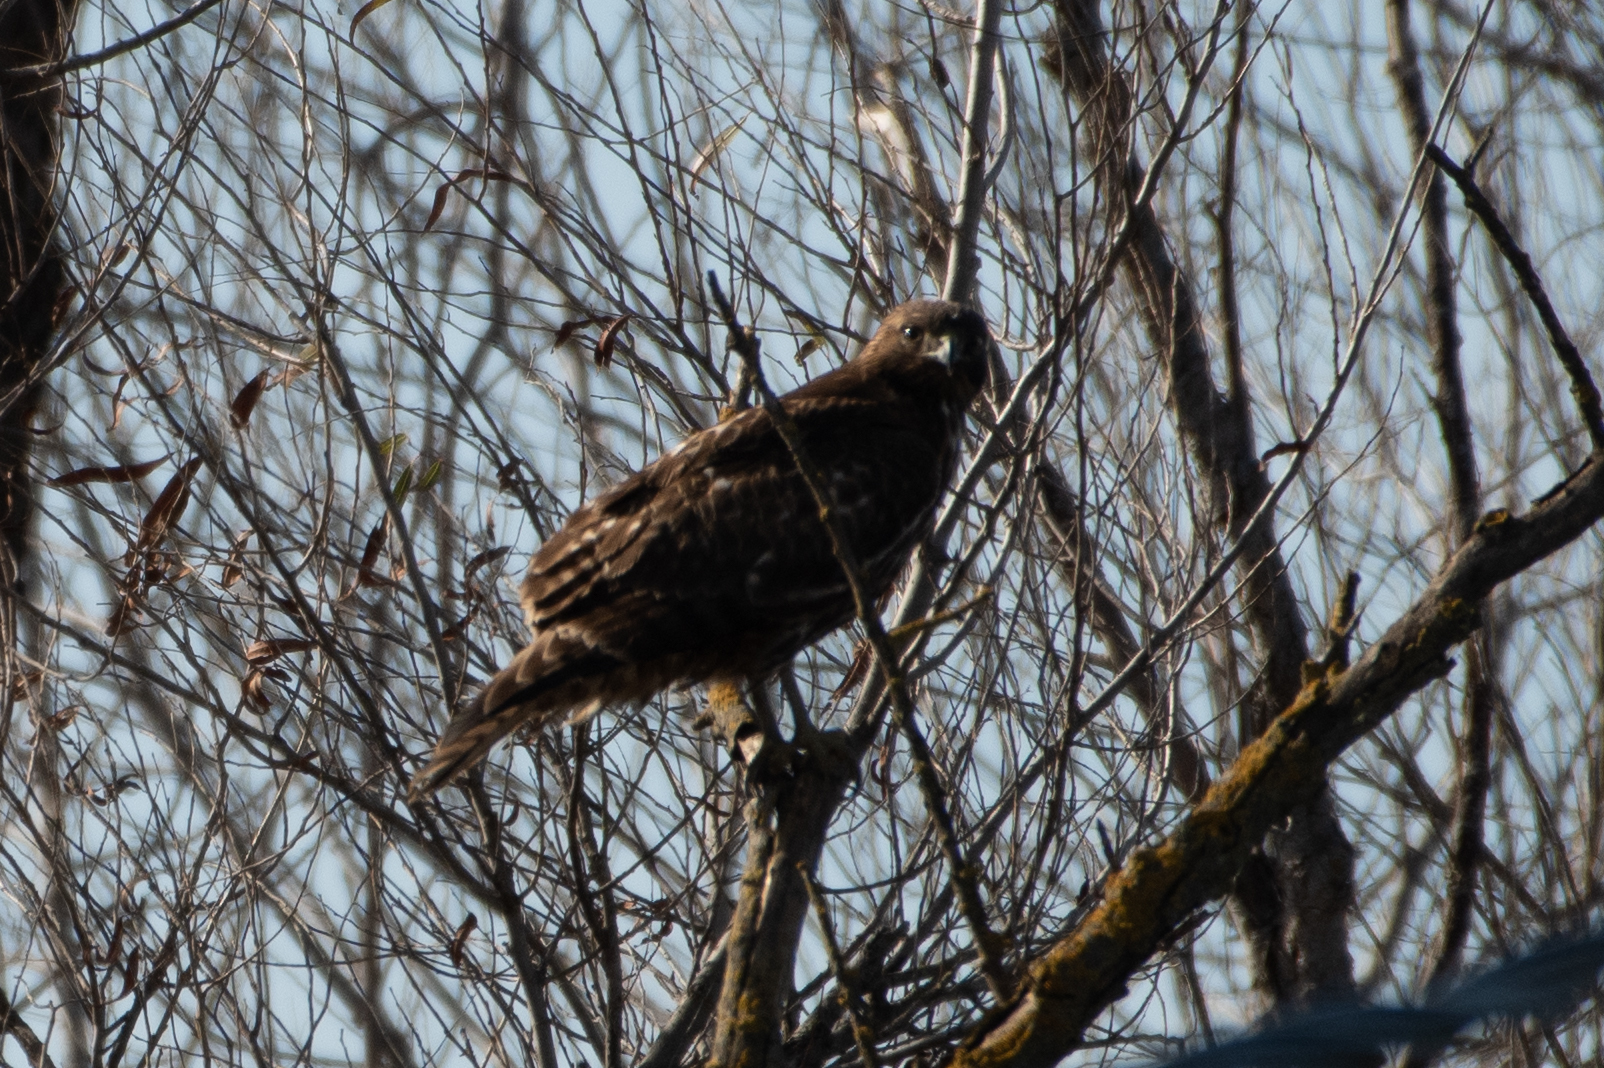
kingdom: Animalia
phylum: Chordata
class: Aves
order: Accipitriformes
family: Accipitridae
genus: Buteo
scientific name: Buteo jamaicensis
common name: Red-tailed hawk
